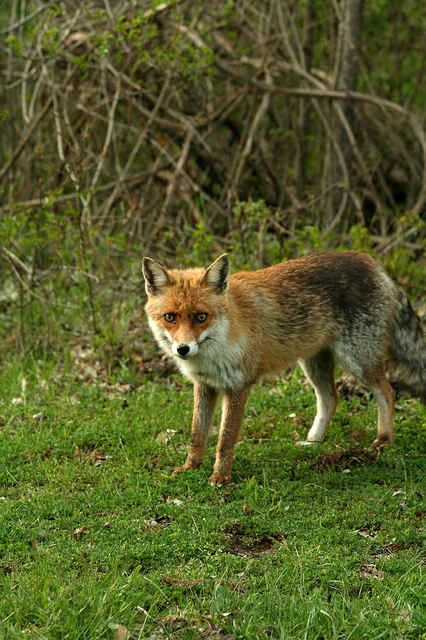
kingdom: Animalia
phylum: Chordata
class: Mammalia
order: Carnivora
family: Canidae
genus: Vulpes
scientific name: Vulpes vulpes
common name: Red fox
